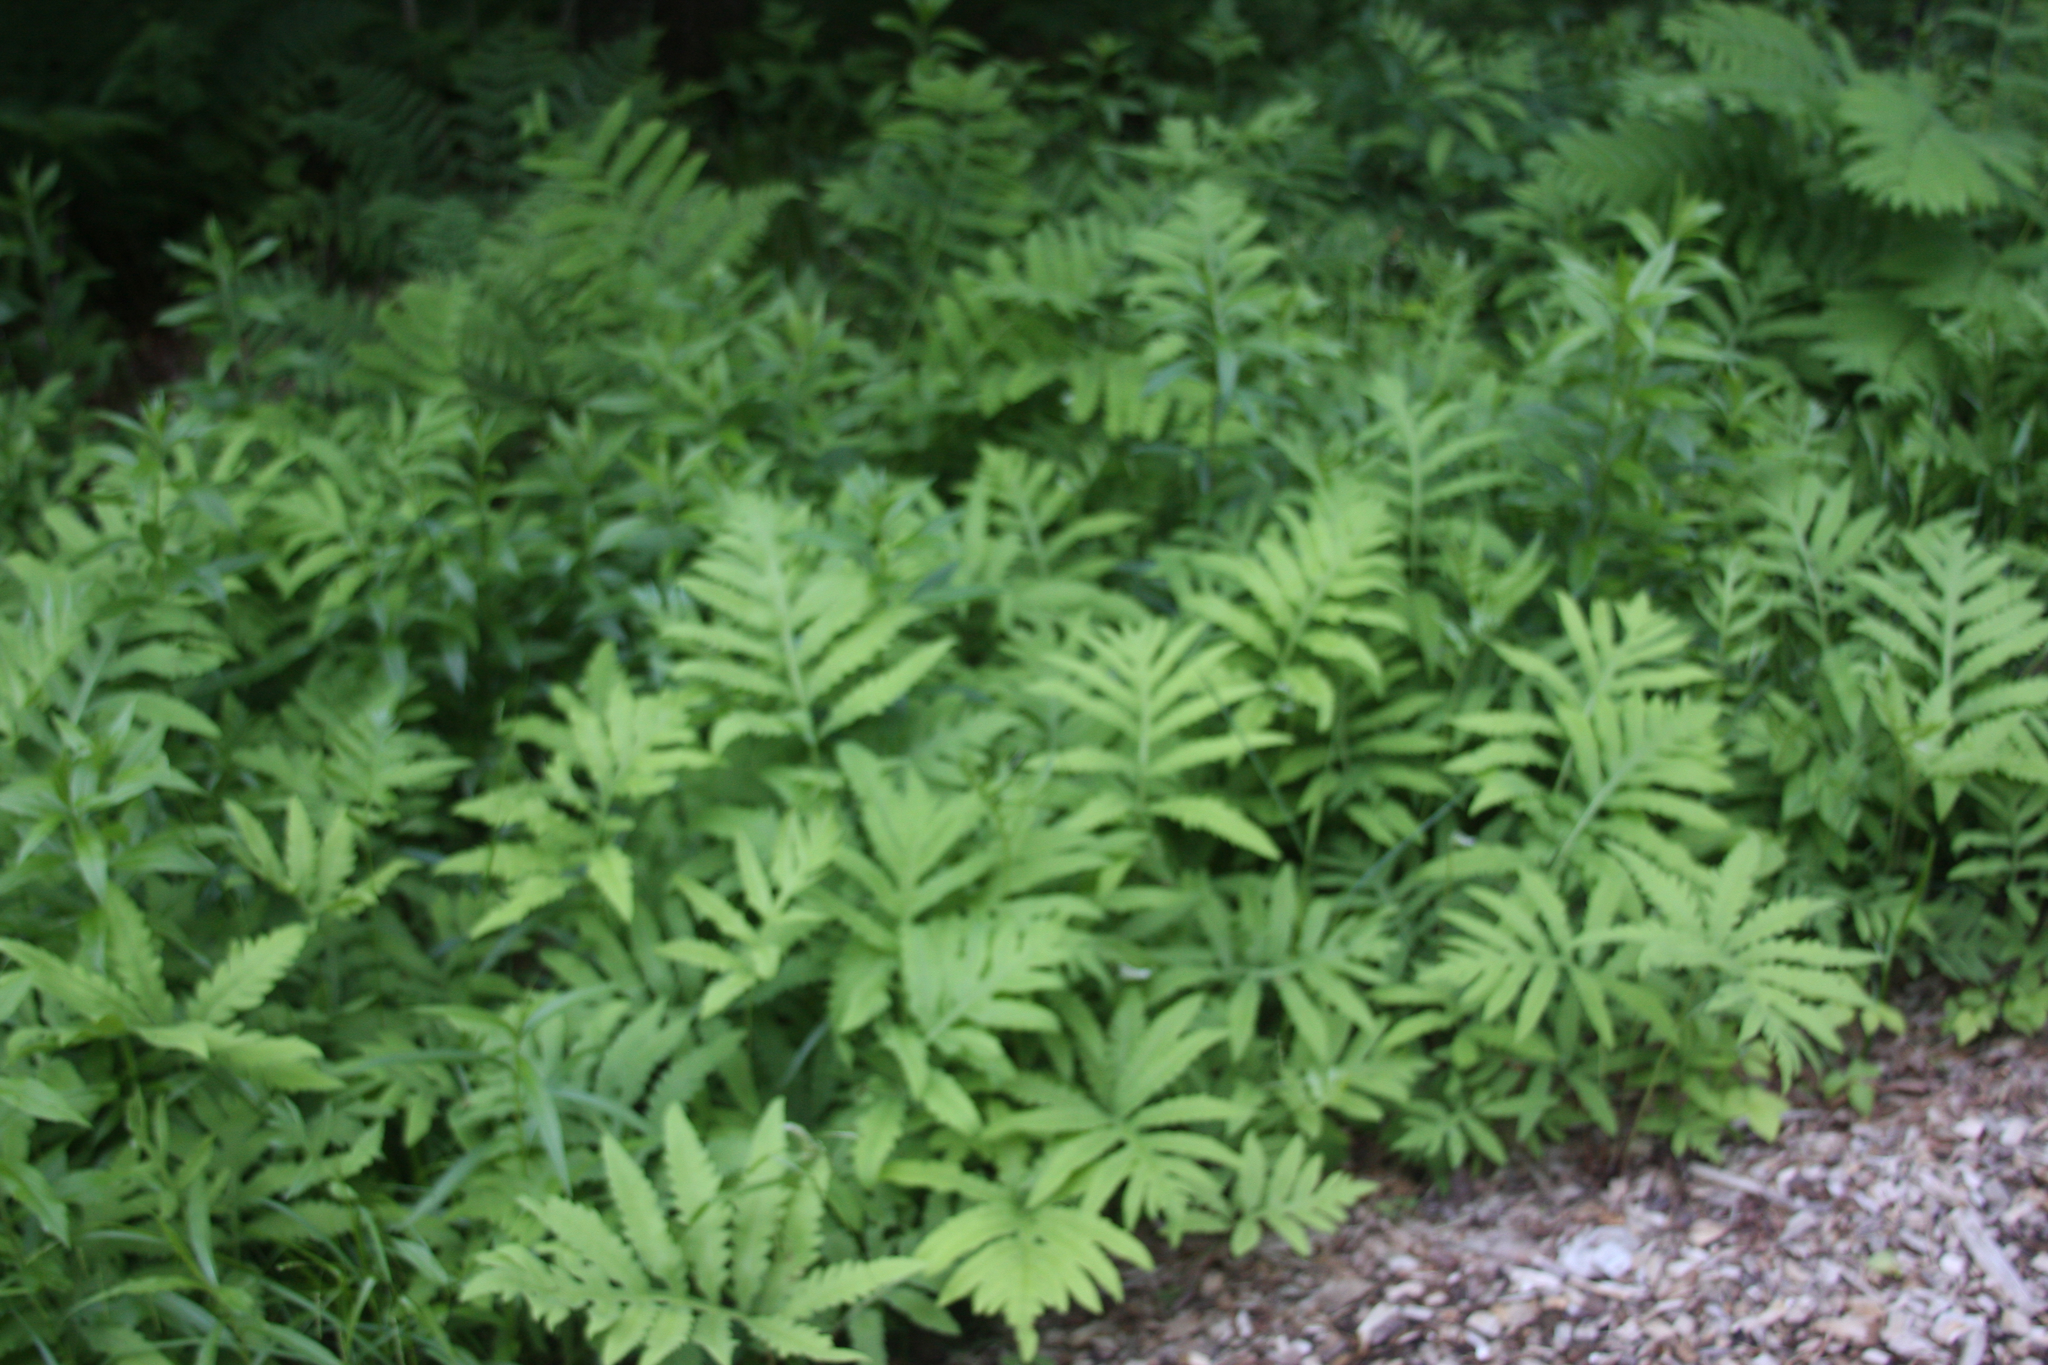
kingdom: Plantae
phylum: Tracheophyta
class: Polypodiopsida
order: Polypodiales
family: Onocleaceae
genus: Onoclea
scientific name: Onoclea sensibilis
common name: Sensitive fern
